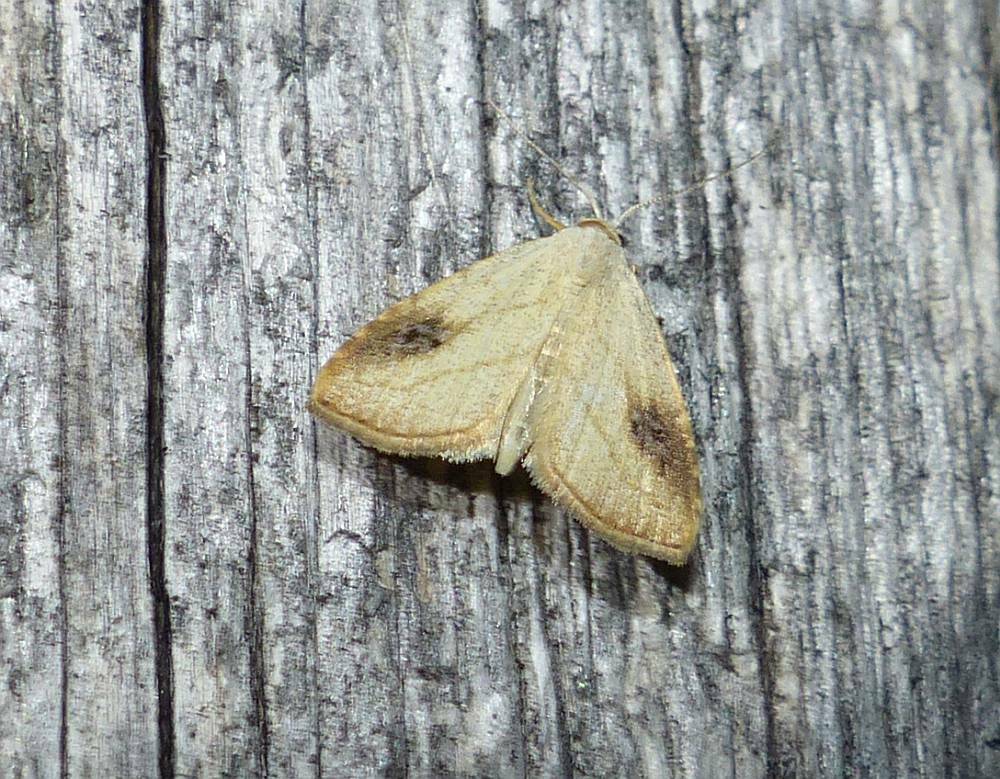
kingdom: Animalia
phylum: Arthropoda
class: Insecta
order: Lepidoptera
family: Erebidae
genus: Rivula
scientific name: Rivula propinqualis
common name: Spotted grass moth
